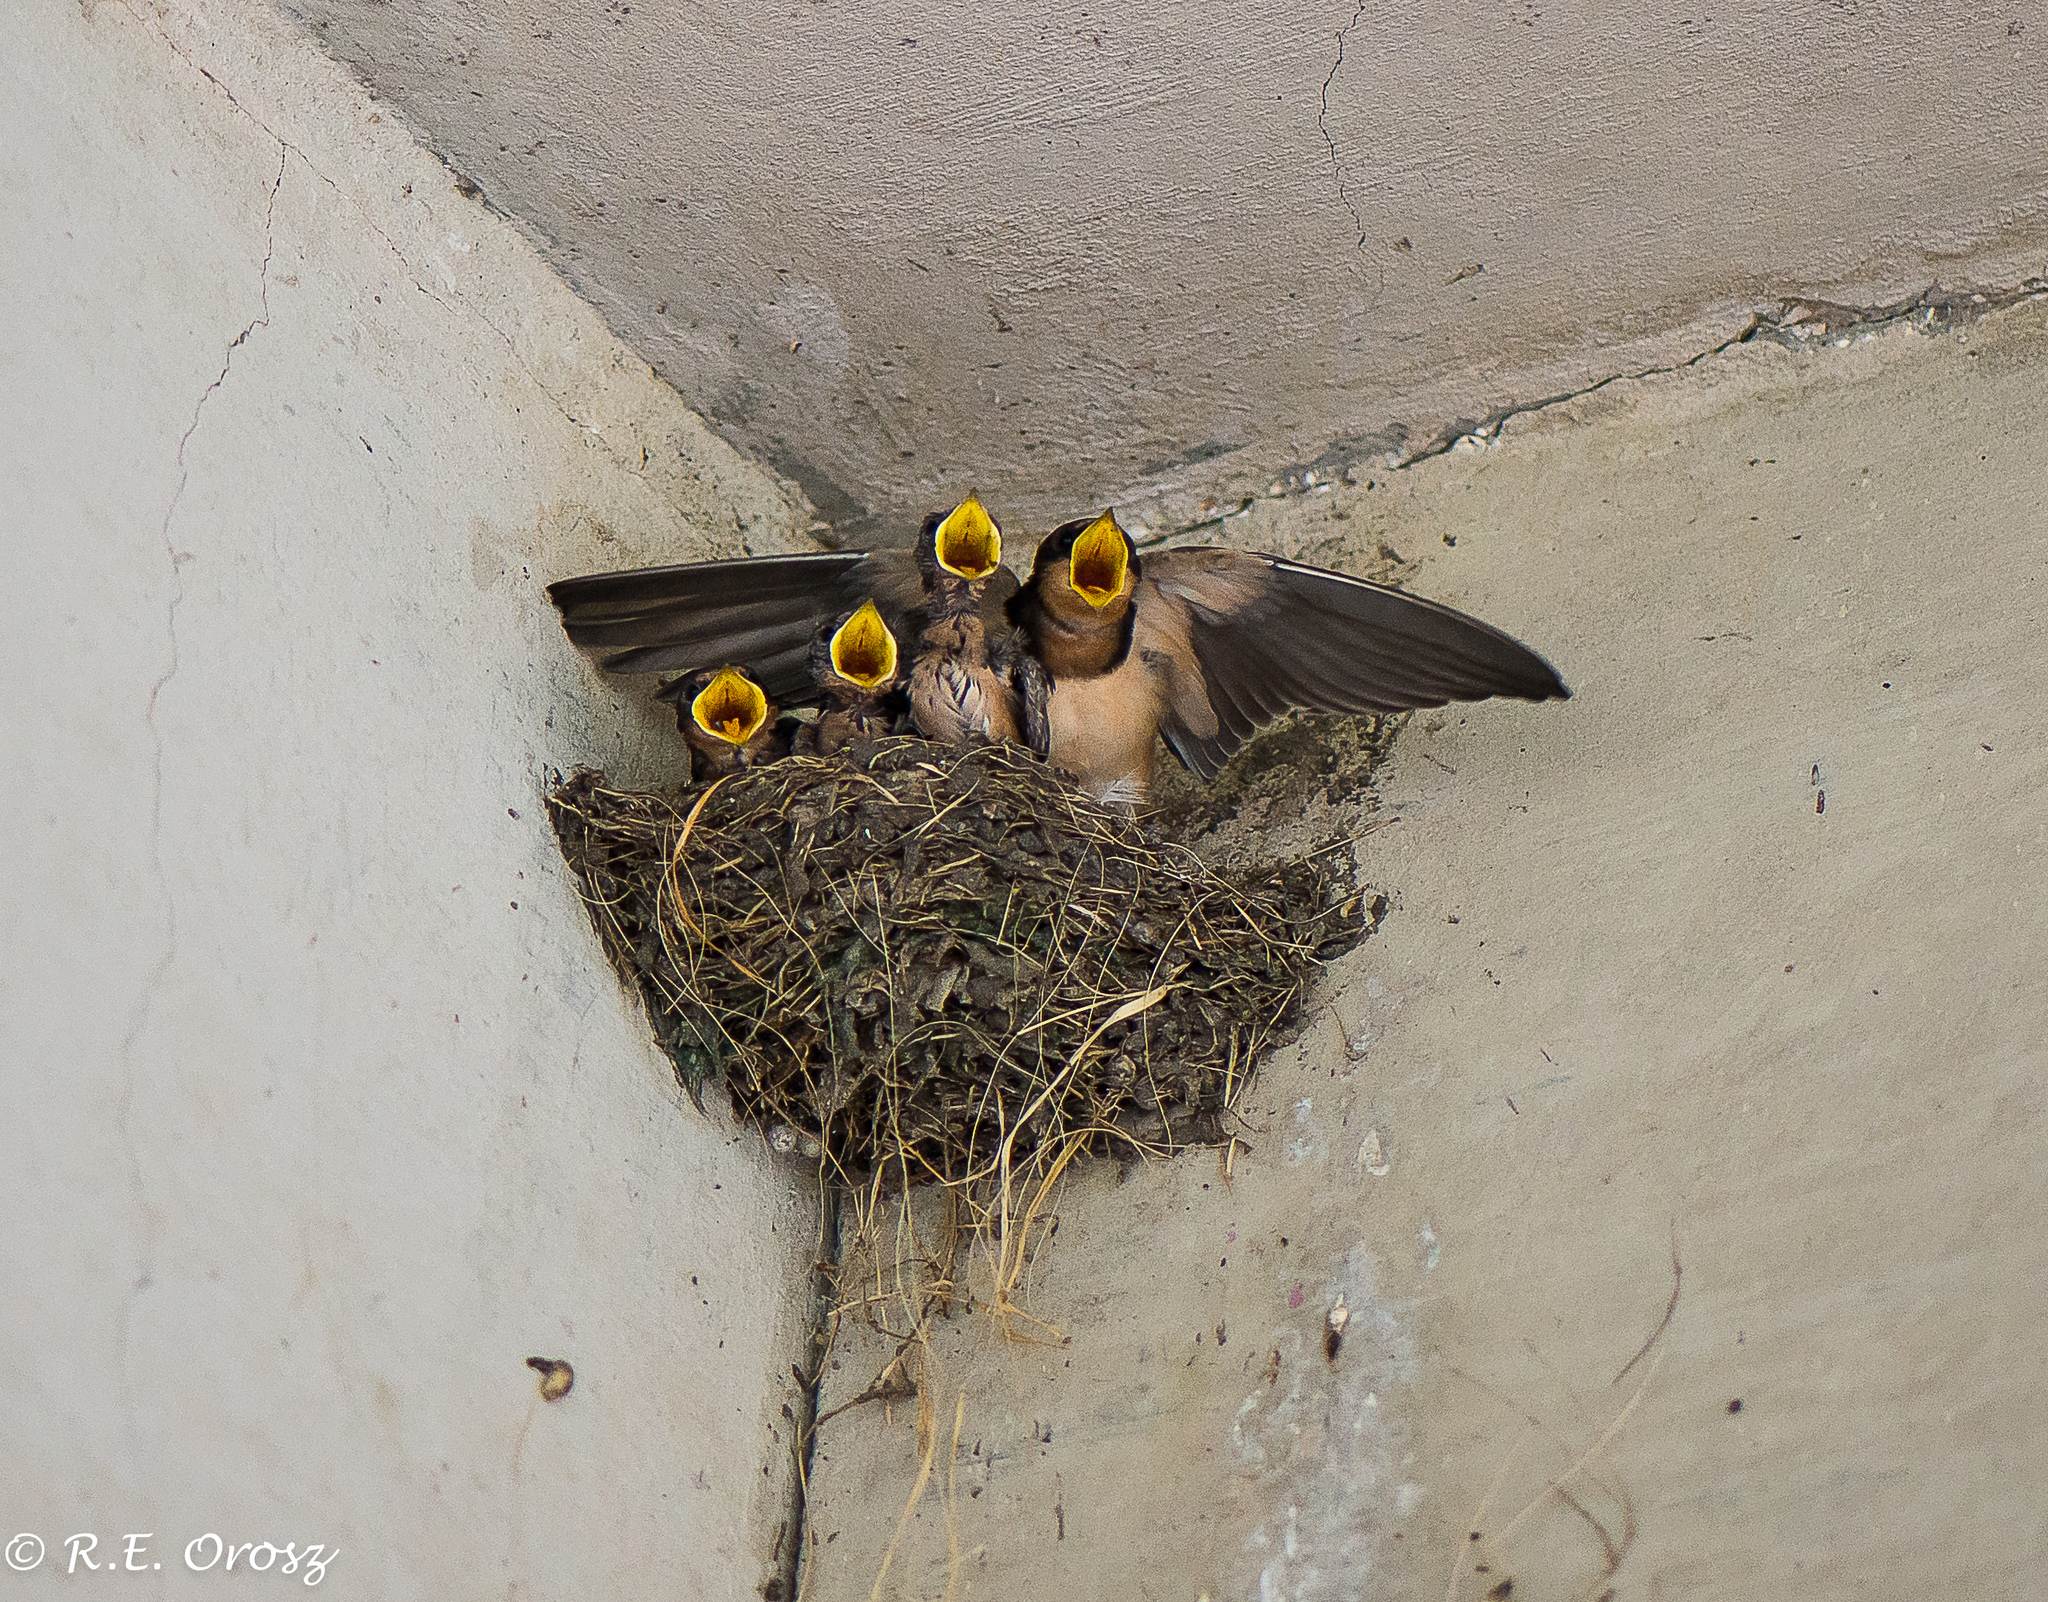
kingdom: Animalia
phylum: Chordata
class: Aves
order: Passeriformes
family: Hirundinidae
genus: Hirundo
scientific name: Hirundo rustica
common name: Barn swallow
